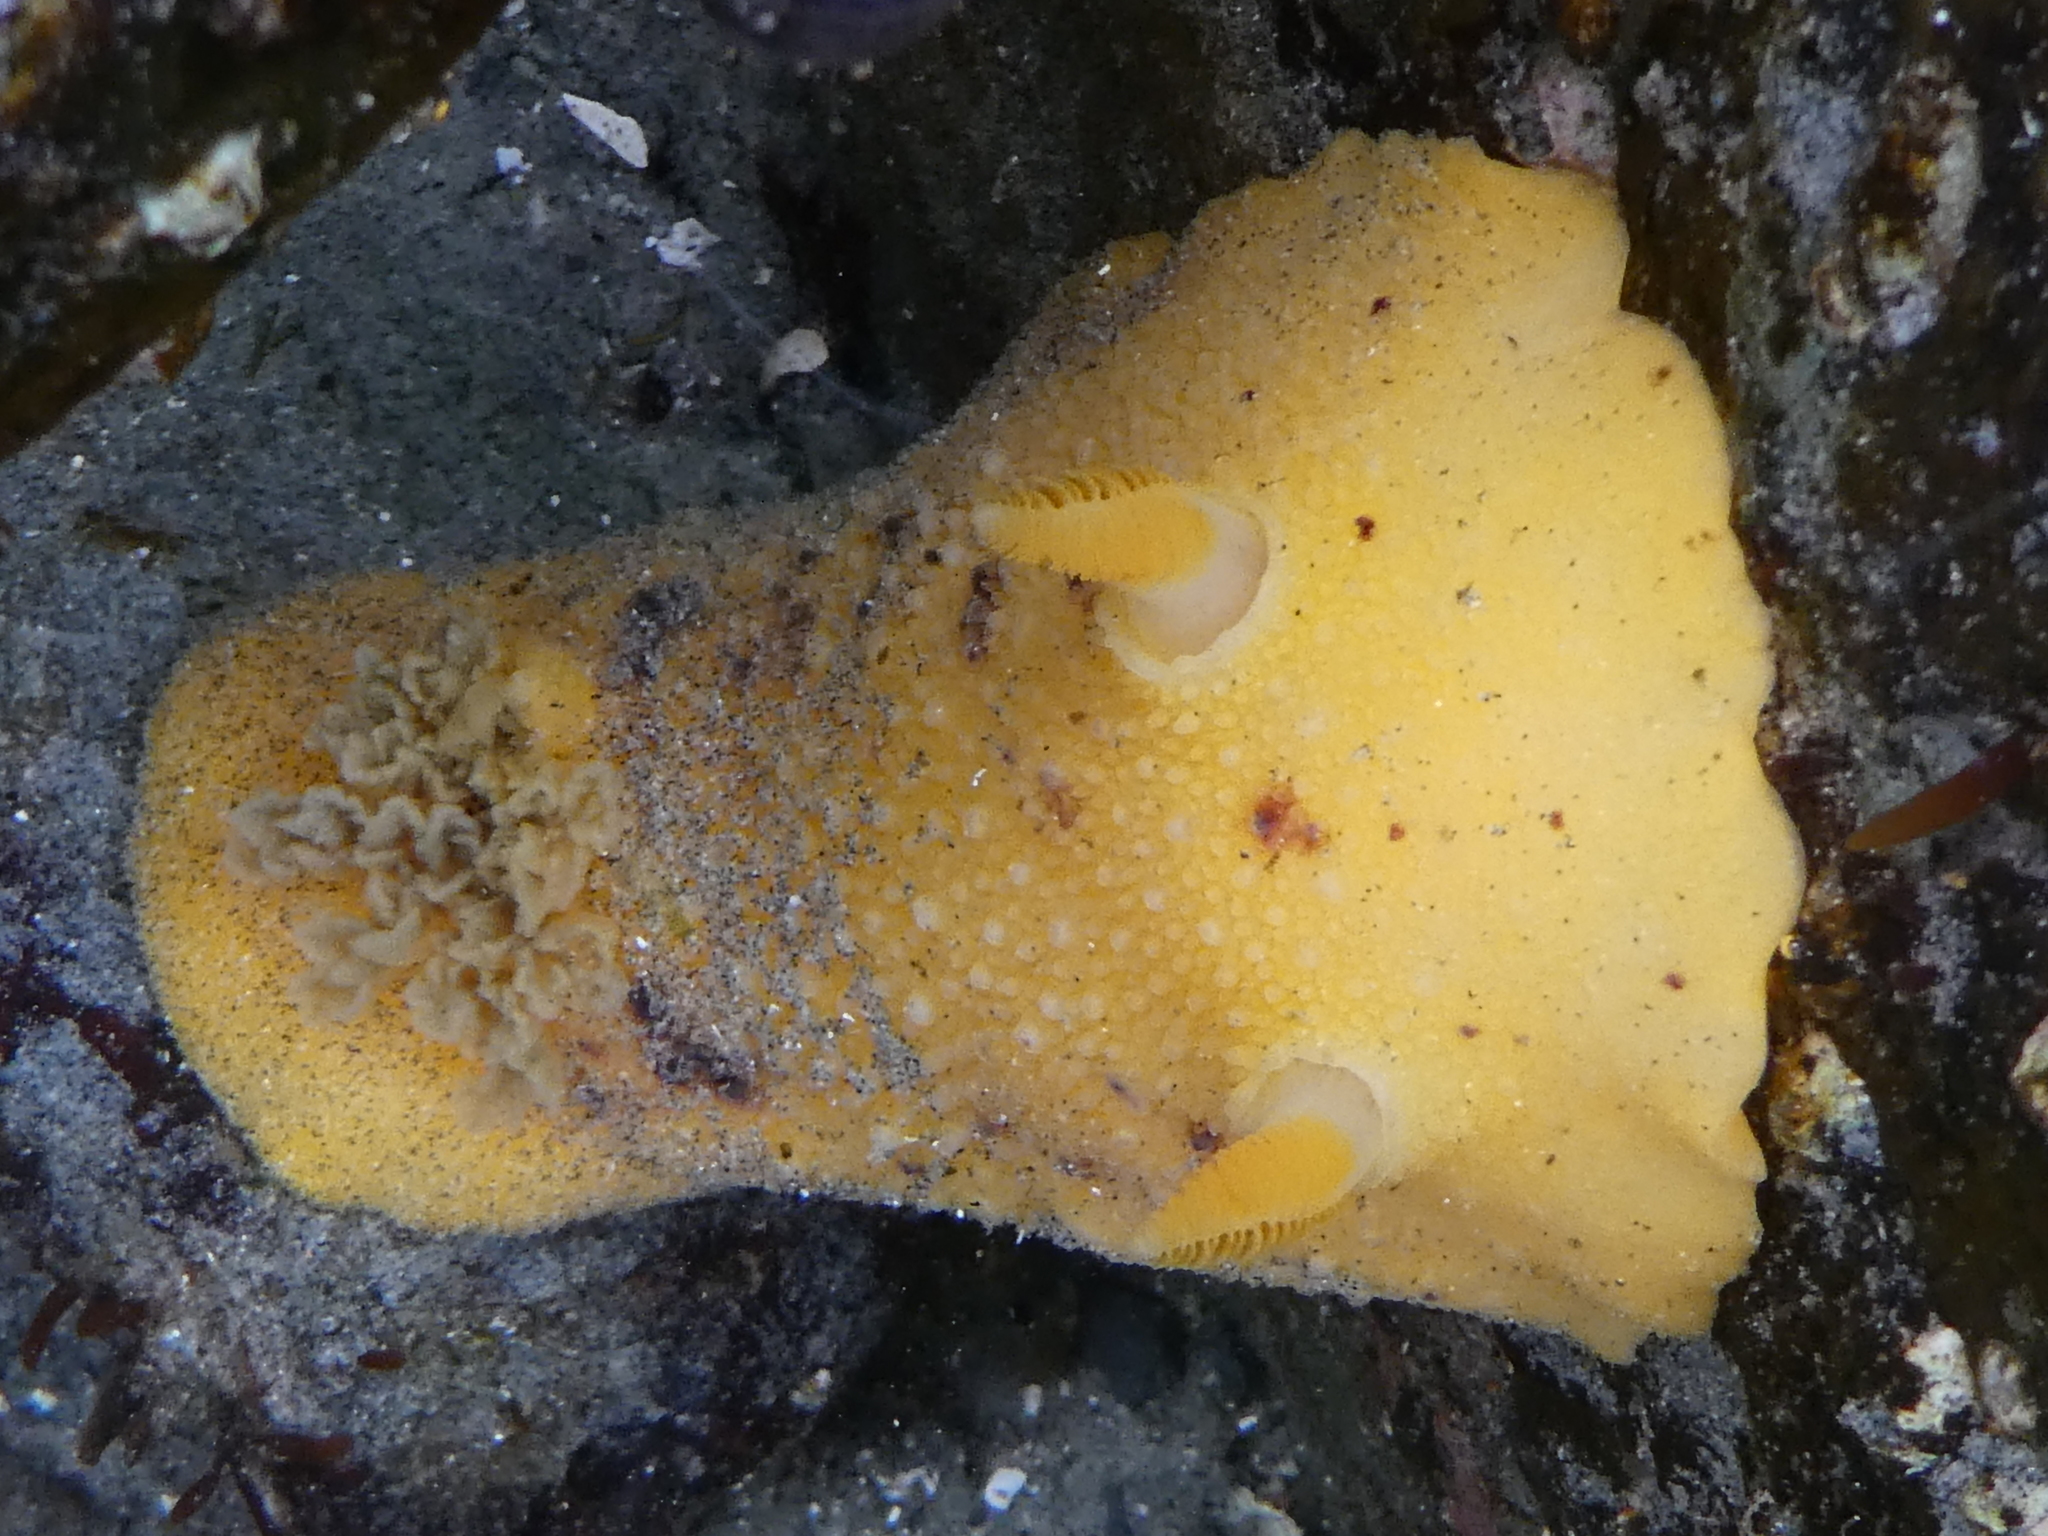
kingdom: Animalia
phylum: Mollusca
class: Gastropoda
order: Nudibranchia
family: Discodorididae
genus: Geitodoris
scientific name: Geitodoris heathi
